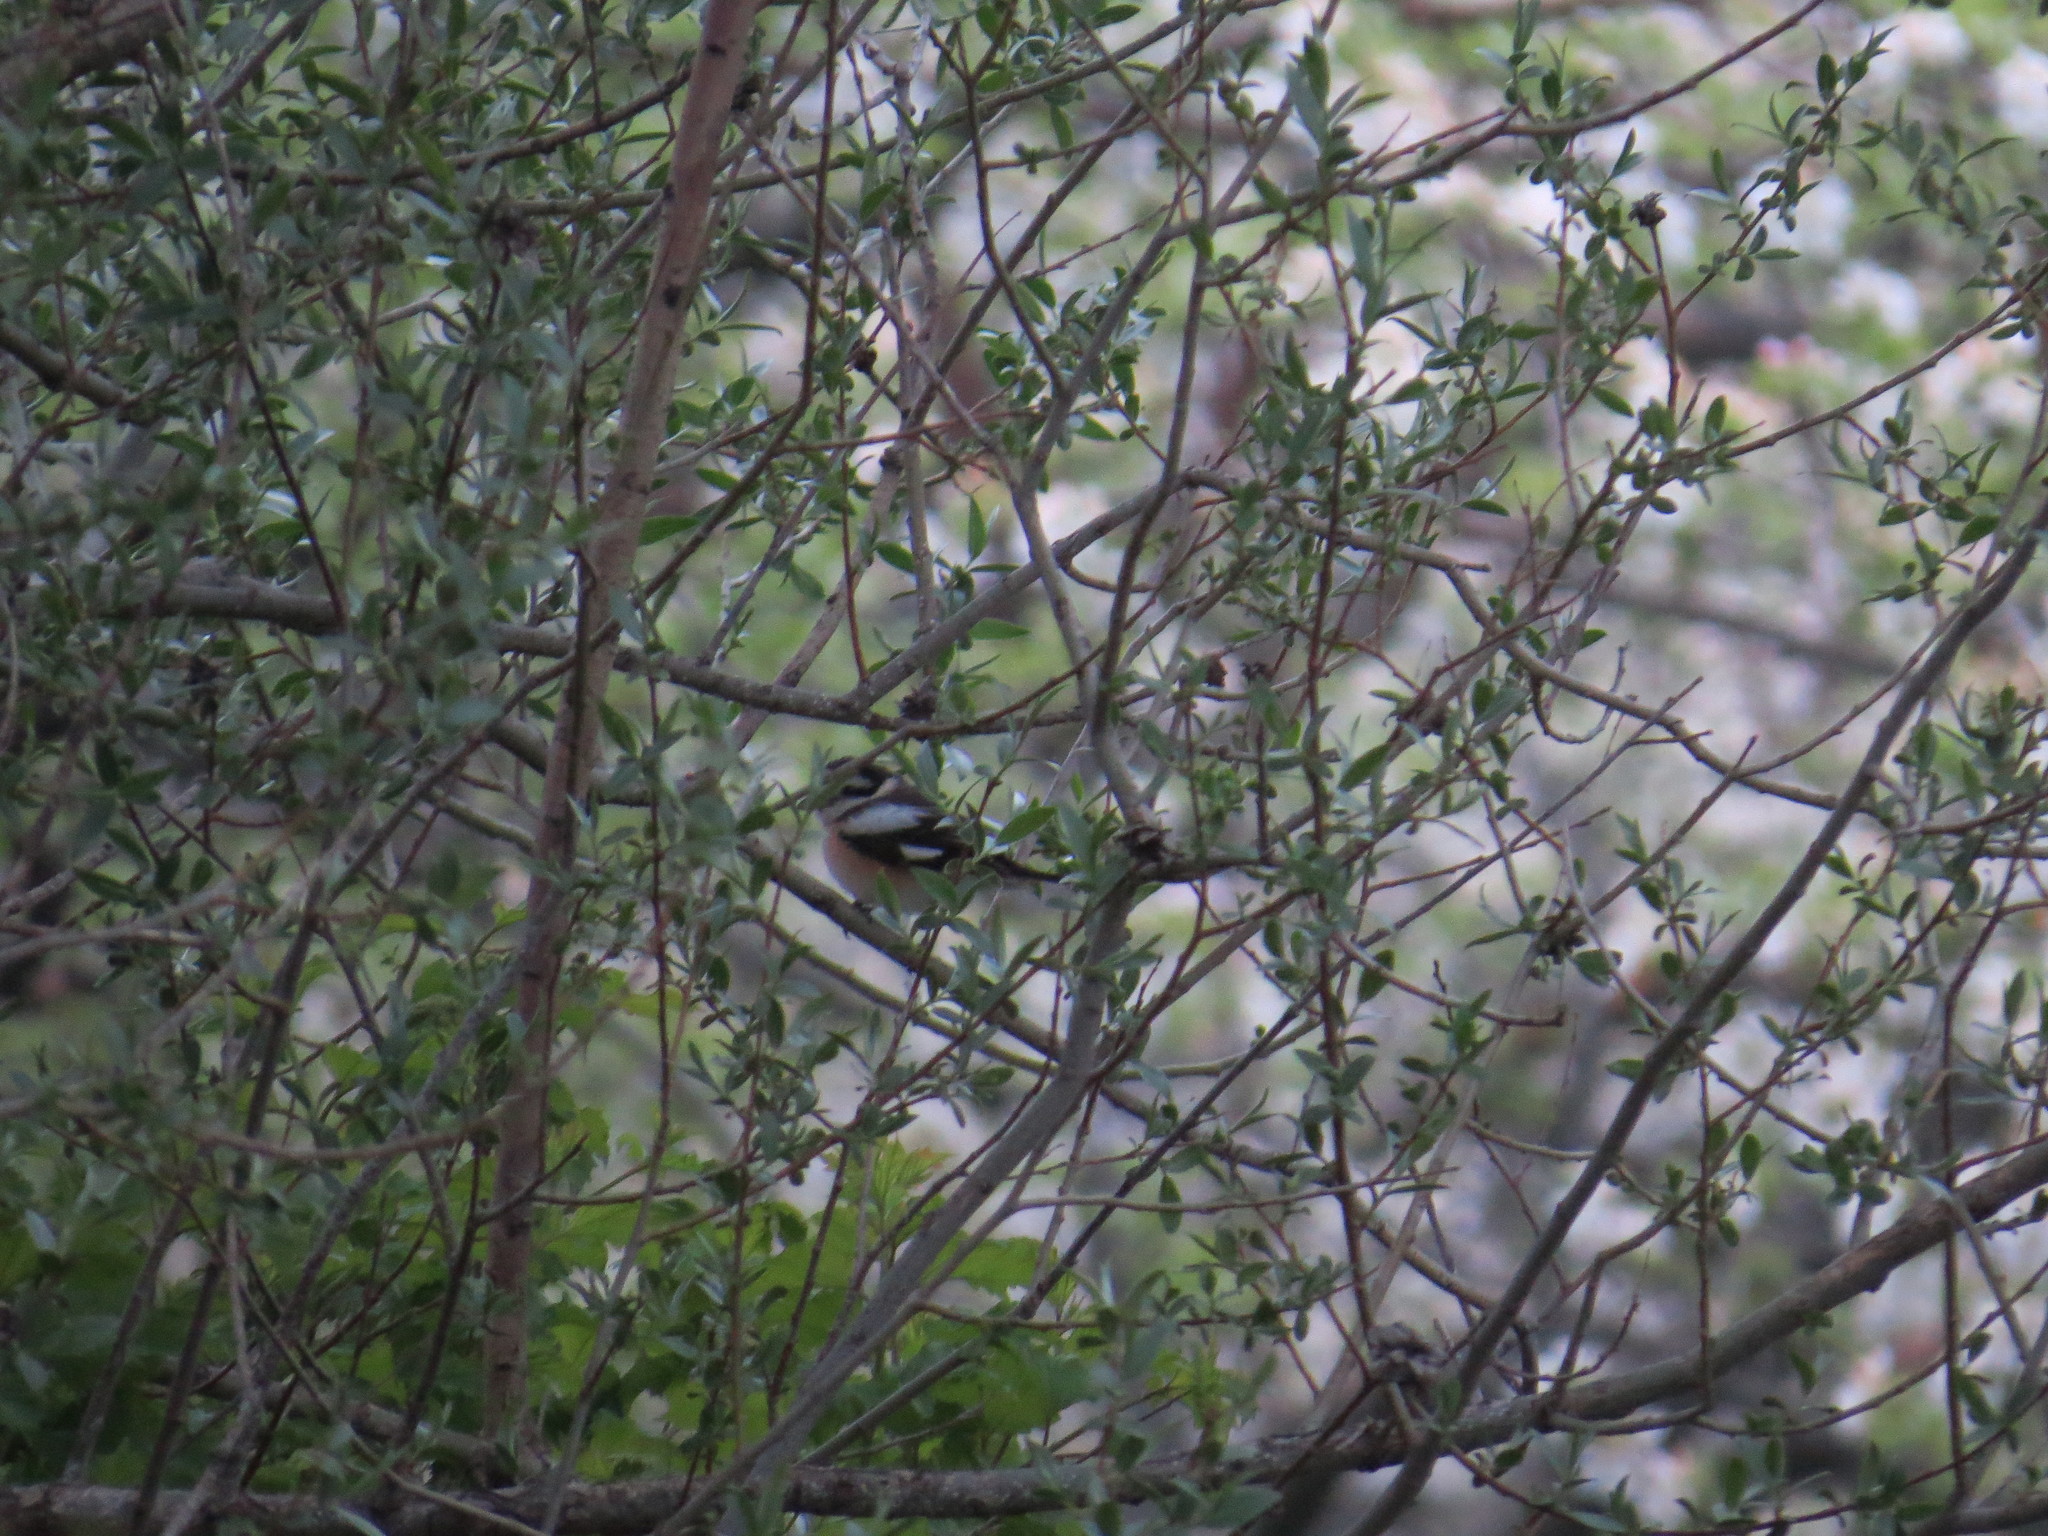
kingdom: Animalia
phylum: Chordata
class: Aves
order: Passeriformes
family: Laniidae
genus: Lanius
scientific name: Lanius nubicus
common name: Masked shrike
